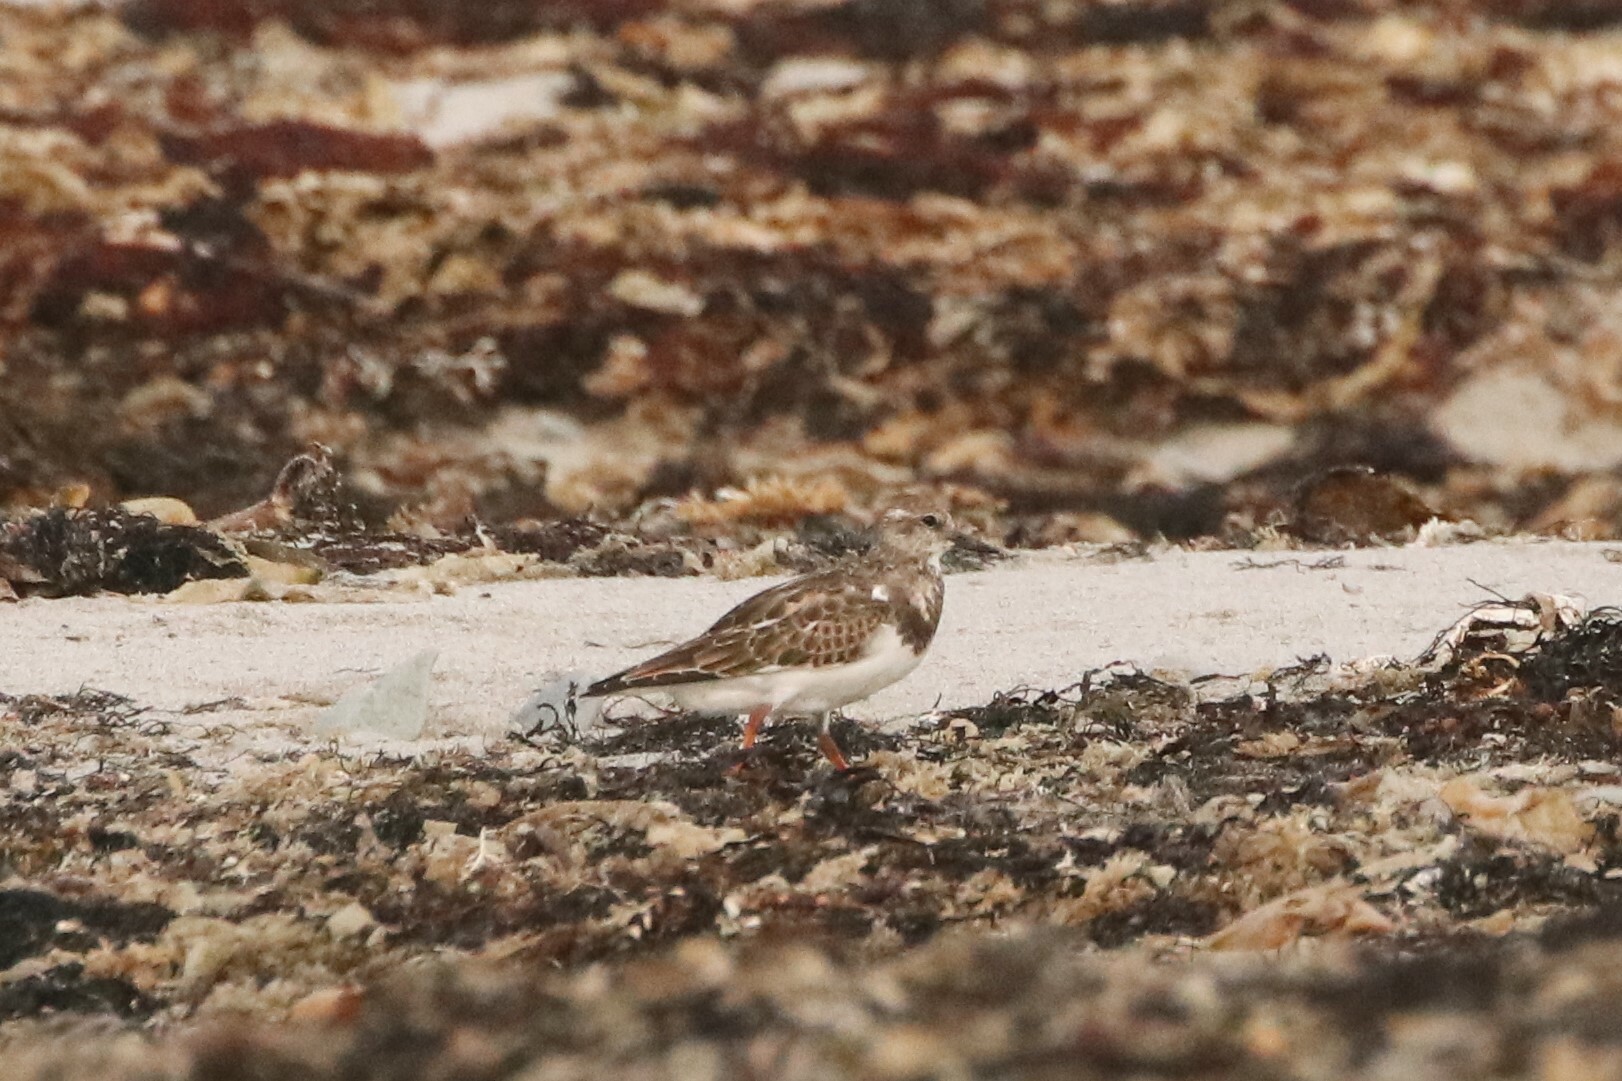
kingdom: Animalia
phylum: Chordata
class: Aves
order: Charadriiformes
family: Scolopacidae
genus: Arenaria
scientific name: Arenaria interpres
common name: Ruddy turnstone
